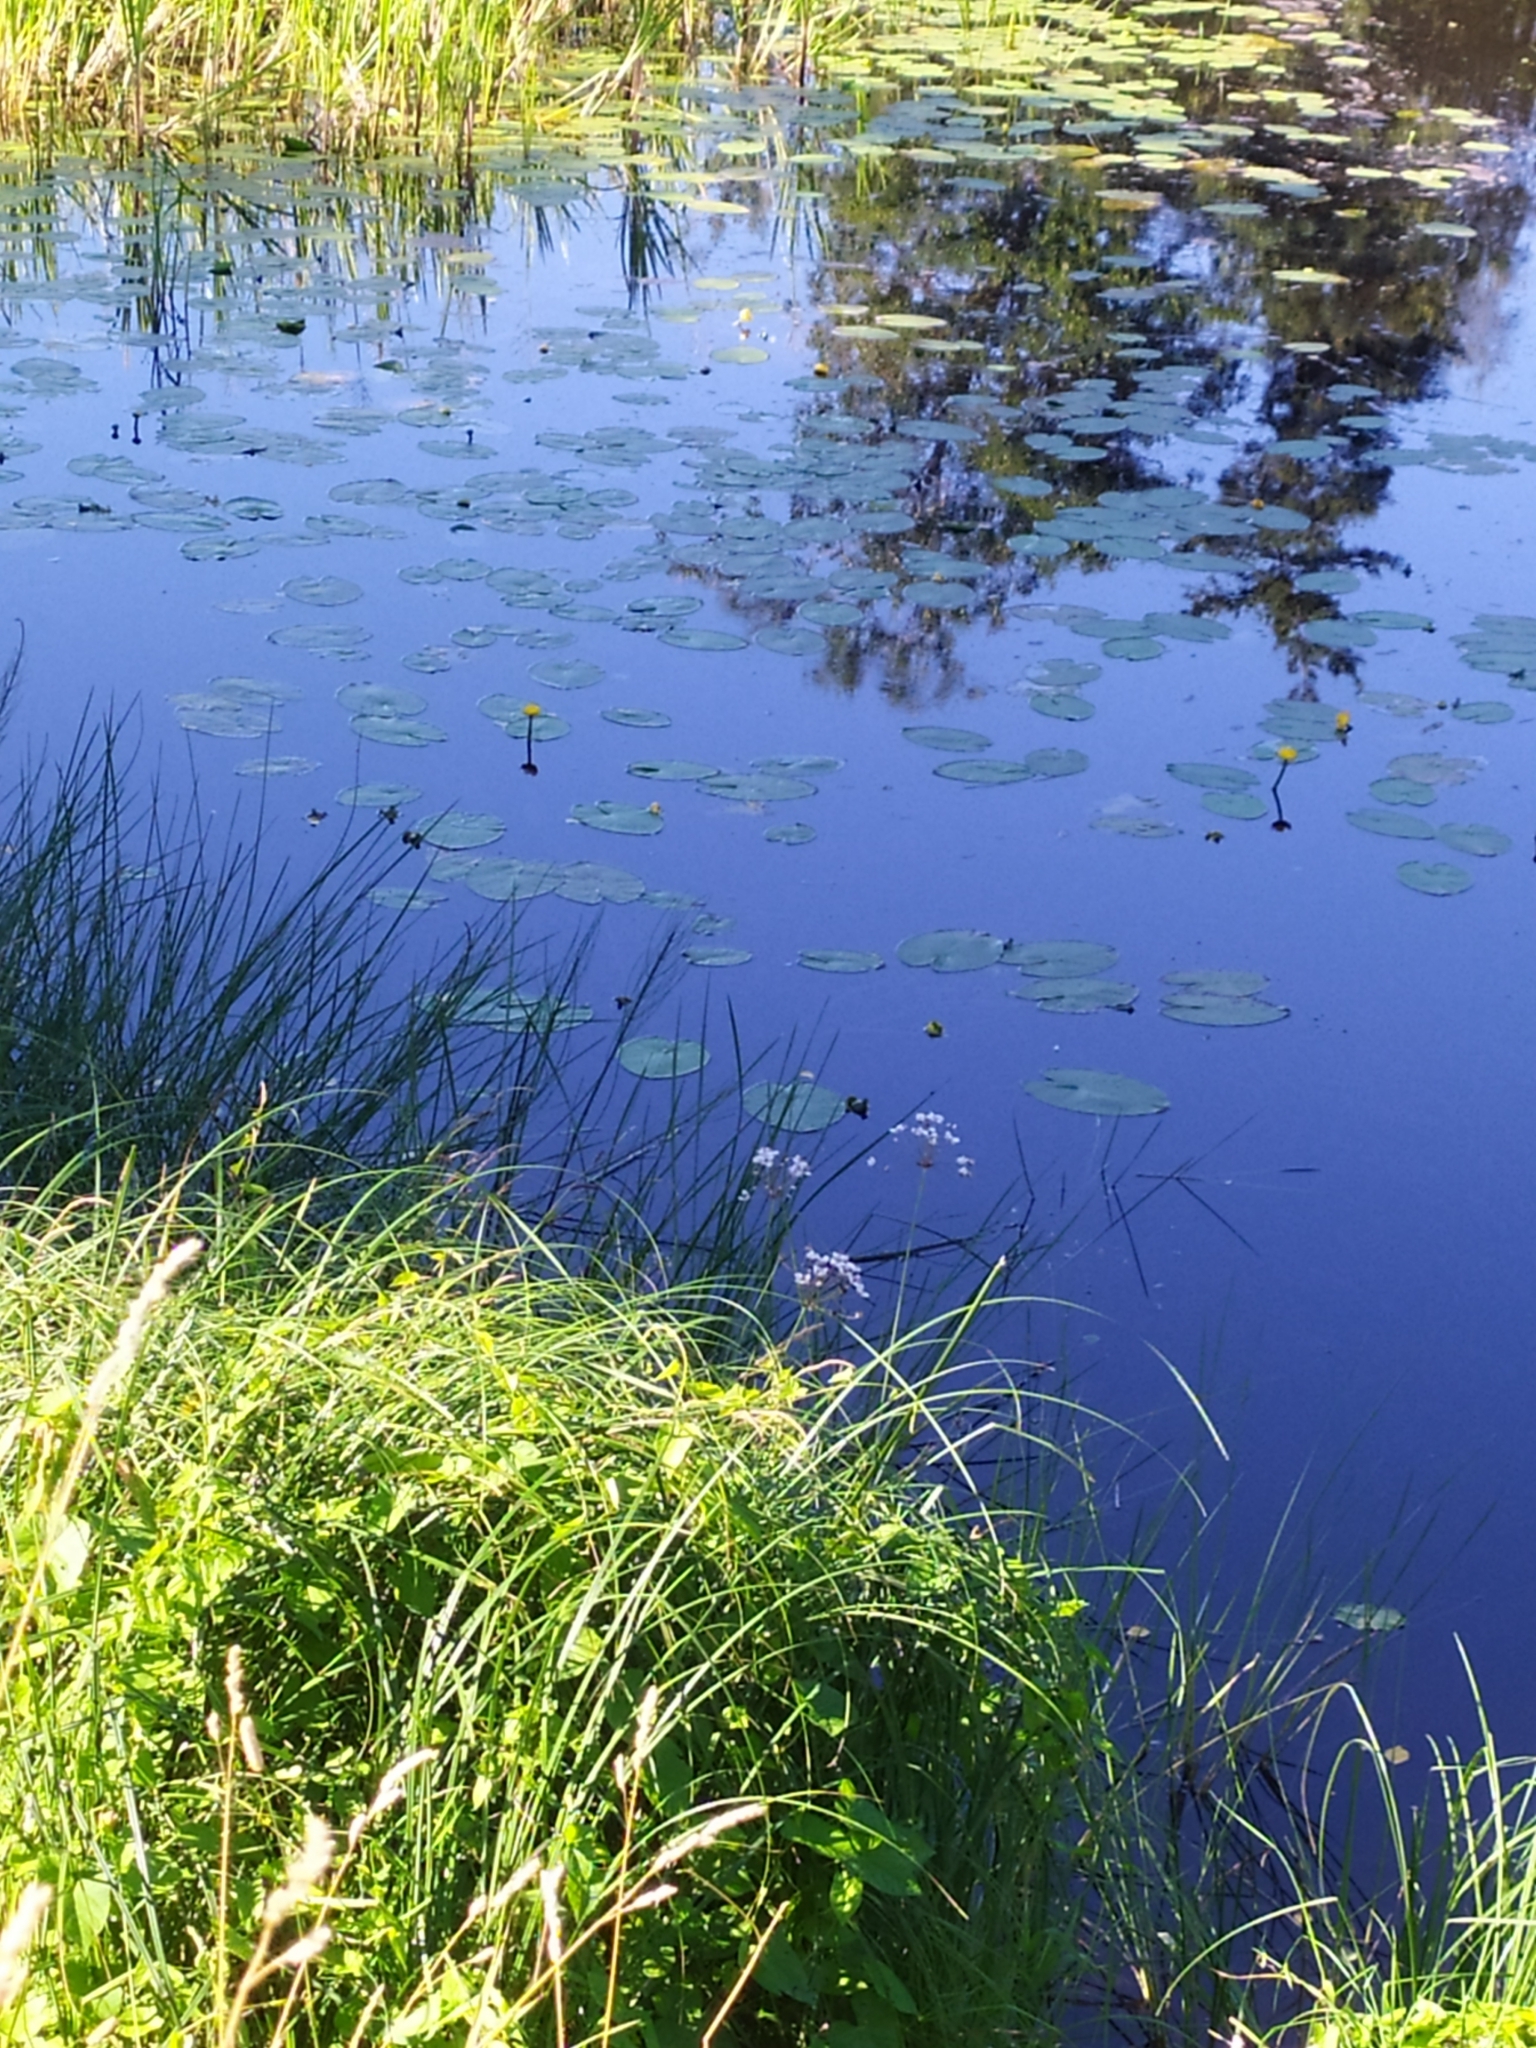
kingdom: Plantae
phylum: Tracheophyta
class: Liliopsida
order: Alismatales
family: Butomaceae
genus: Butomus
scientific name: Butomus umbellatus
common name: Flowering-rush
